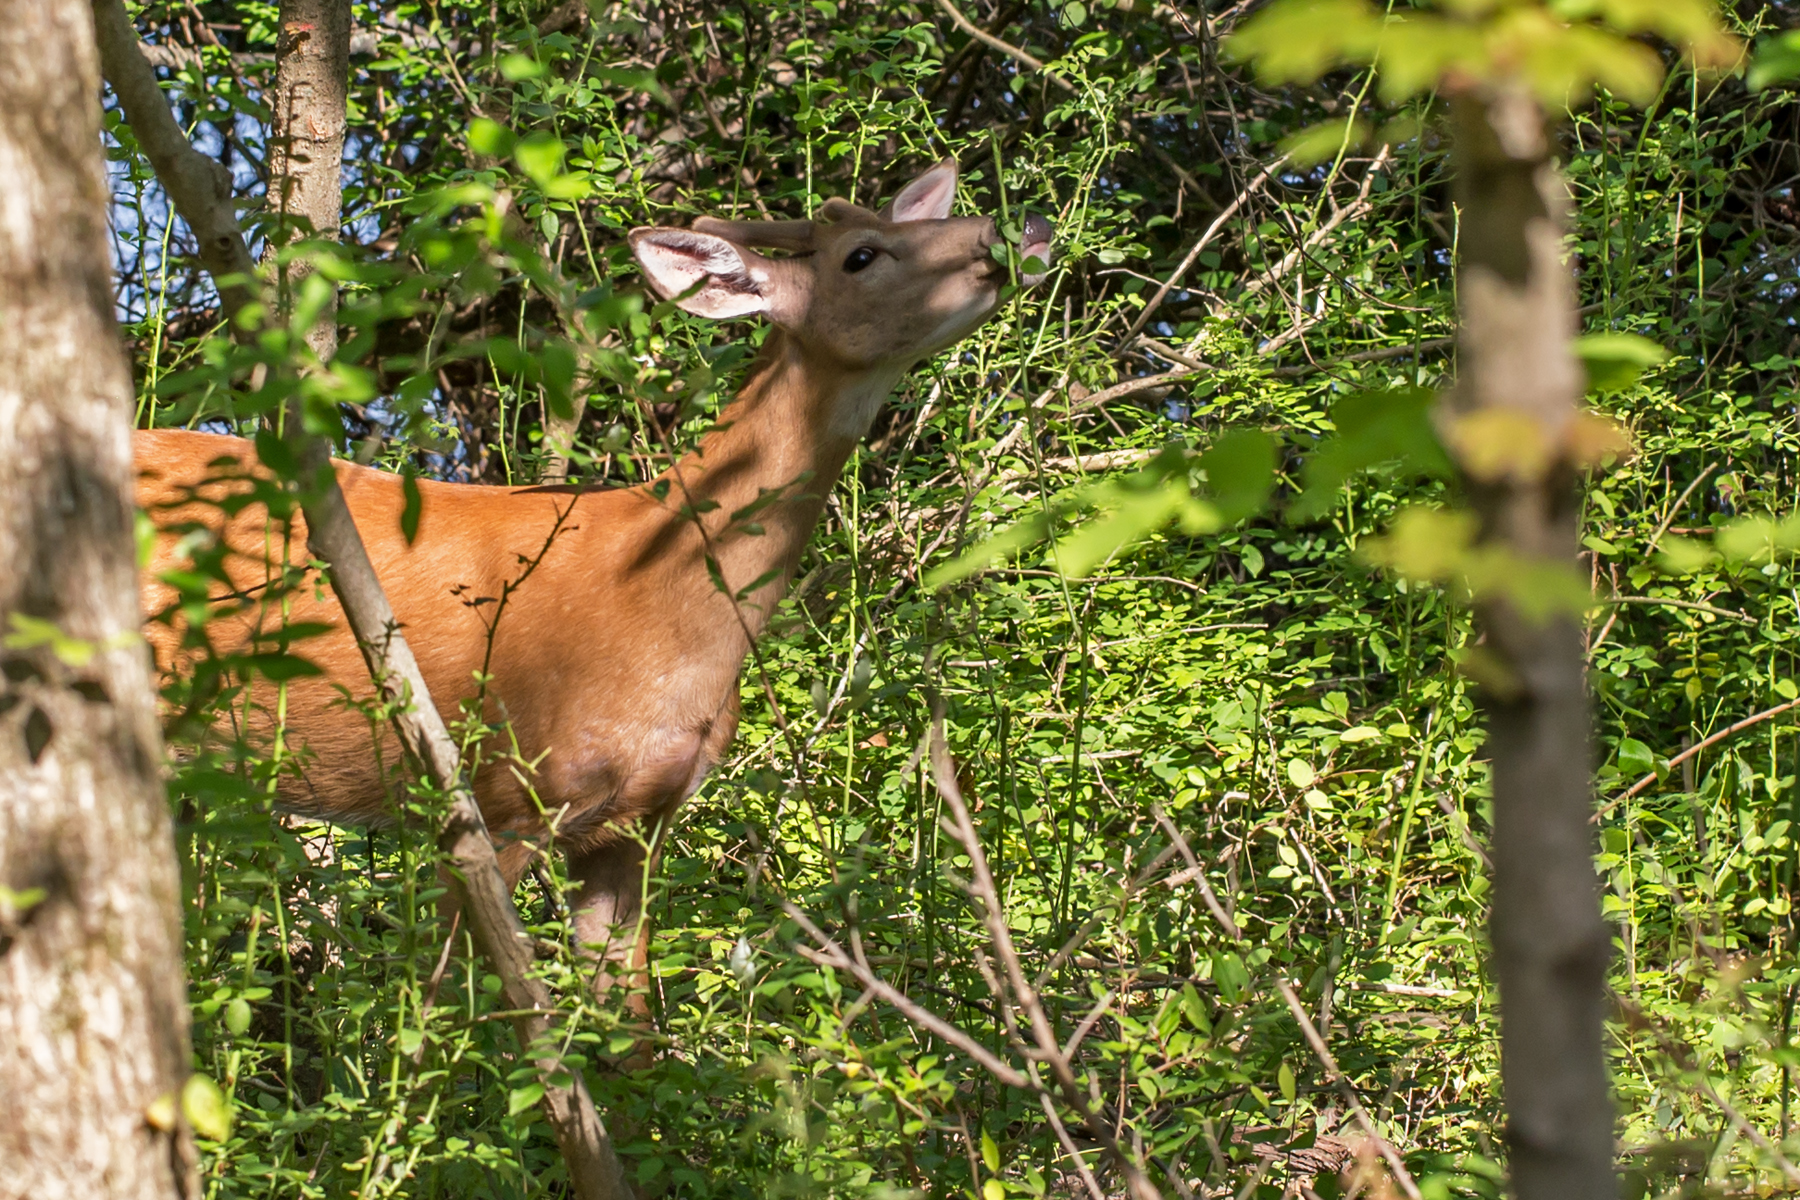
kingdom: Animalia
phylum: Chordata
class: Mammalia
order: Artiodactyla
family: Cervidae
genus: Odocoileus
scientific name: Odocoileus virginianus
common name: White-tailed deer
